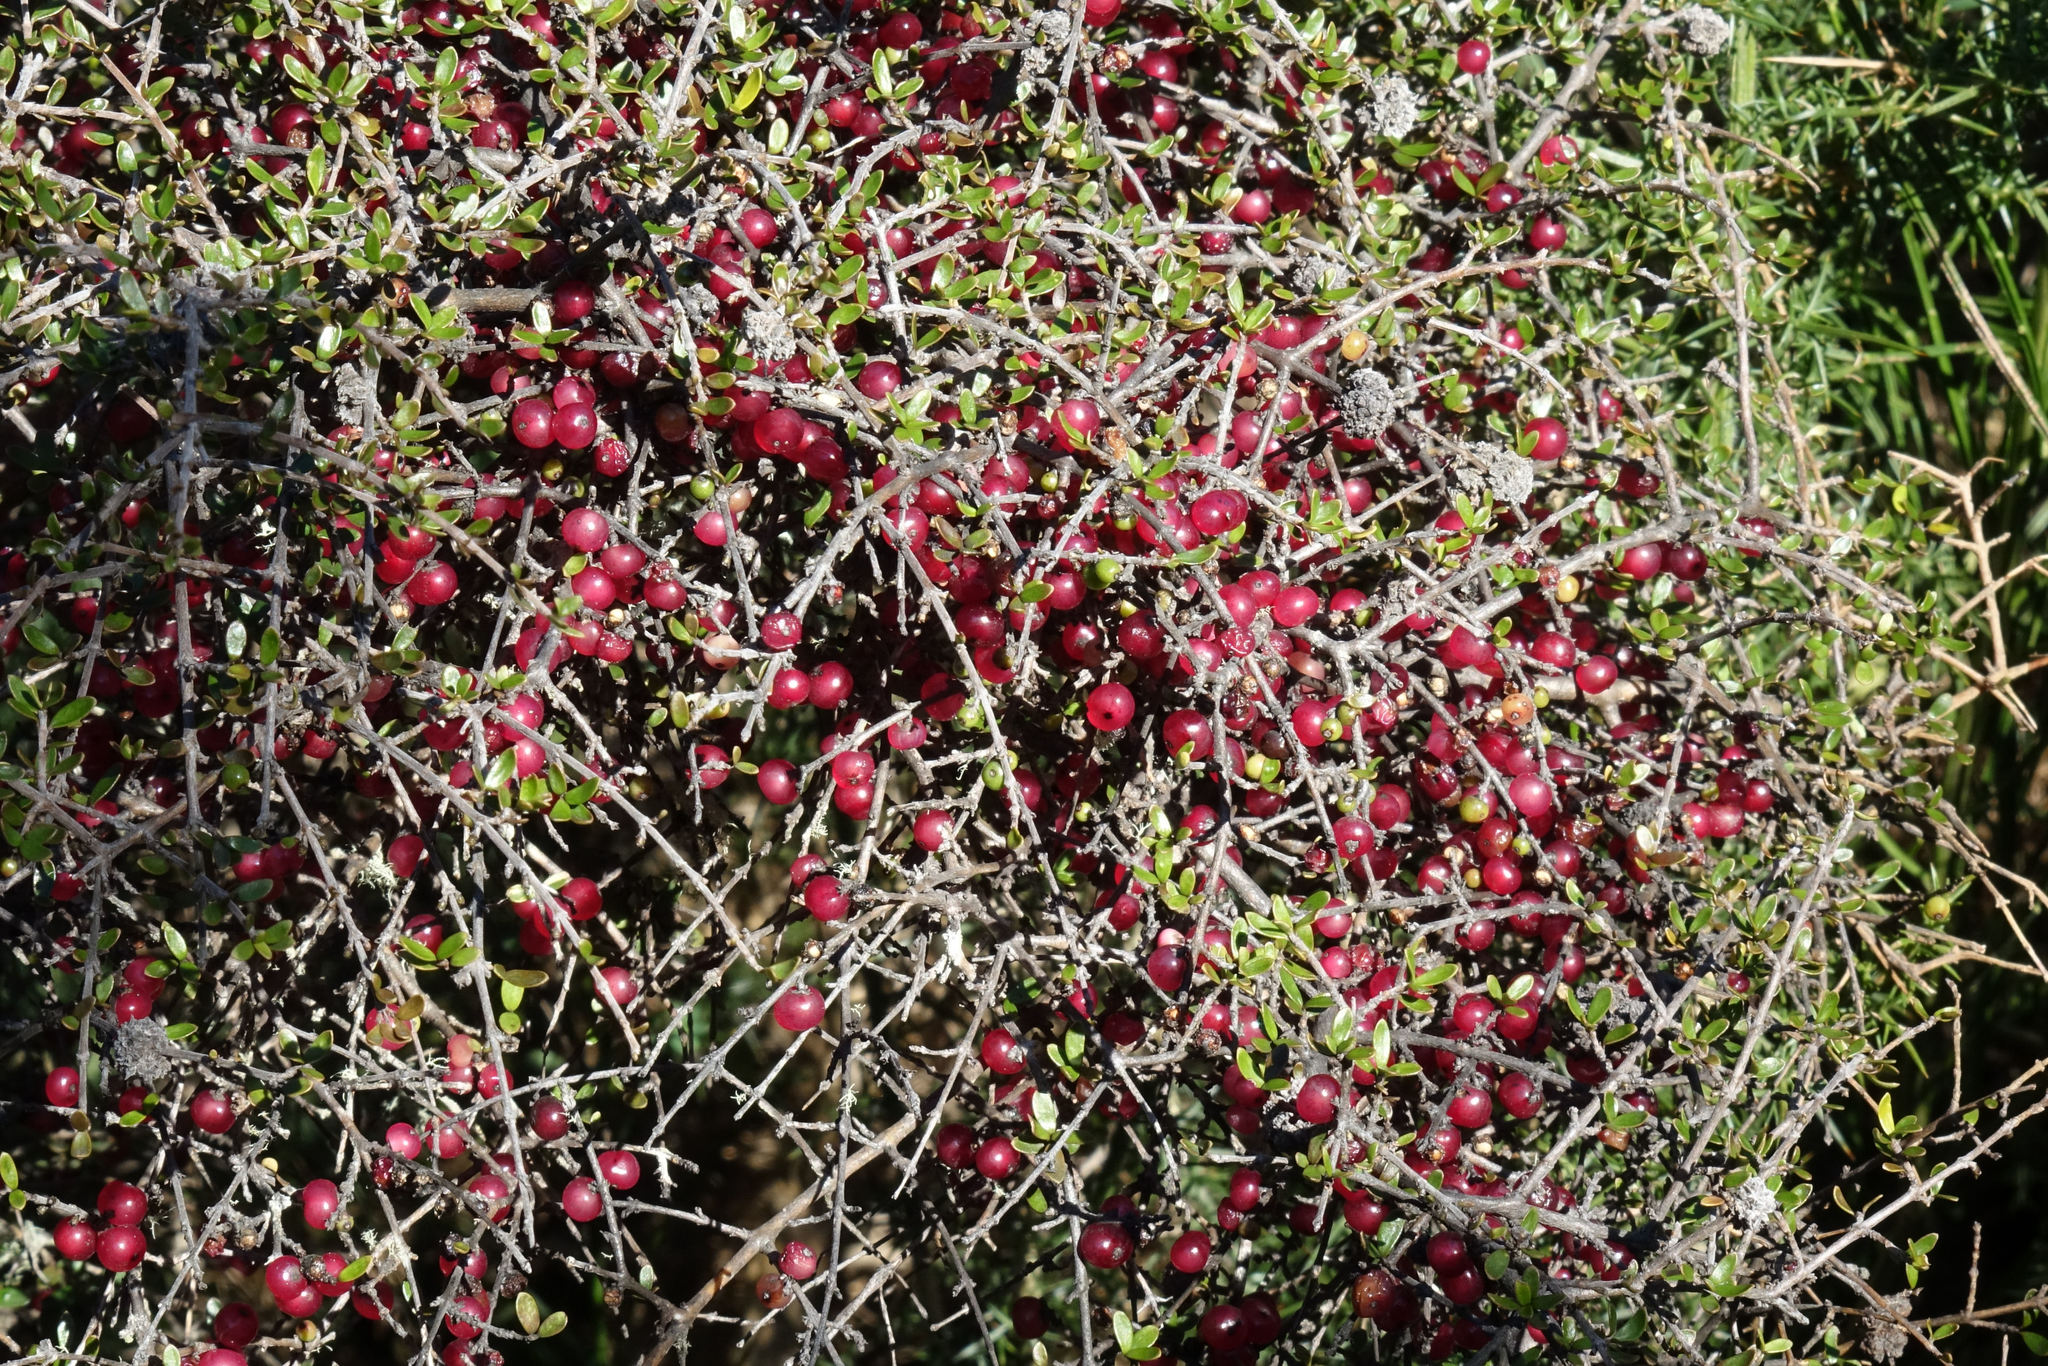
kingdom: Plantae
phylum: Tracheophyta
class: Magnoliopsida
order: Gentianales
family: Rubiaceae
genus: Coprosma
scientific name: Coprosma dumosa
